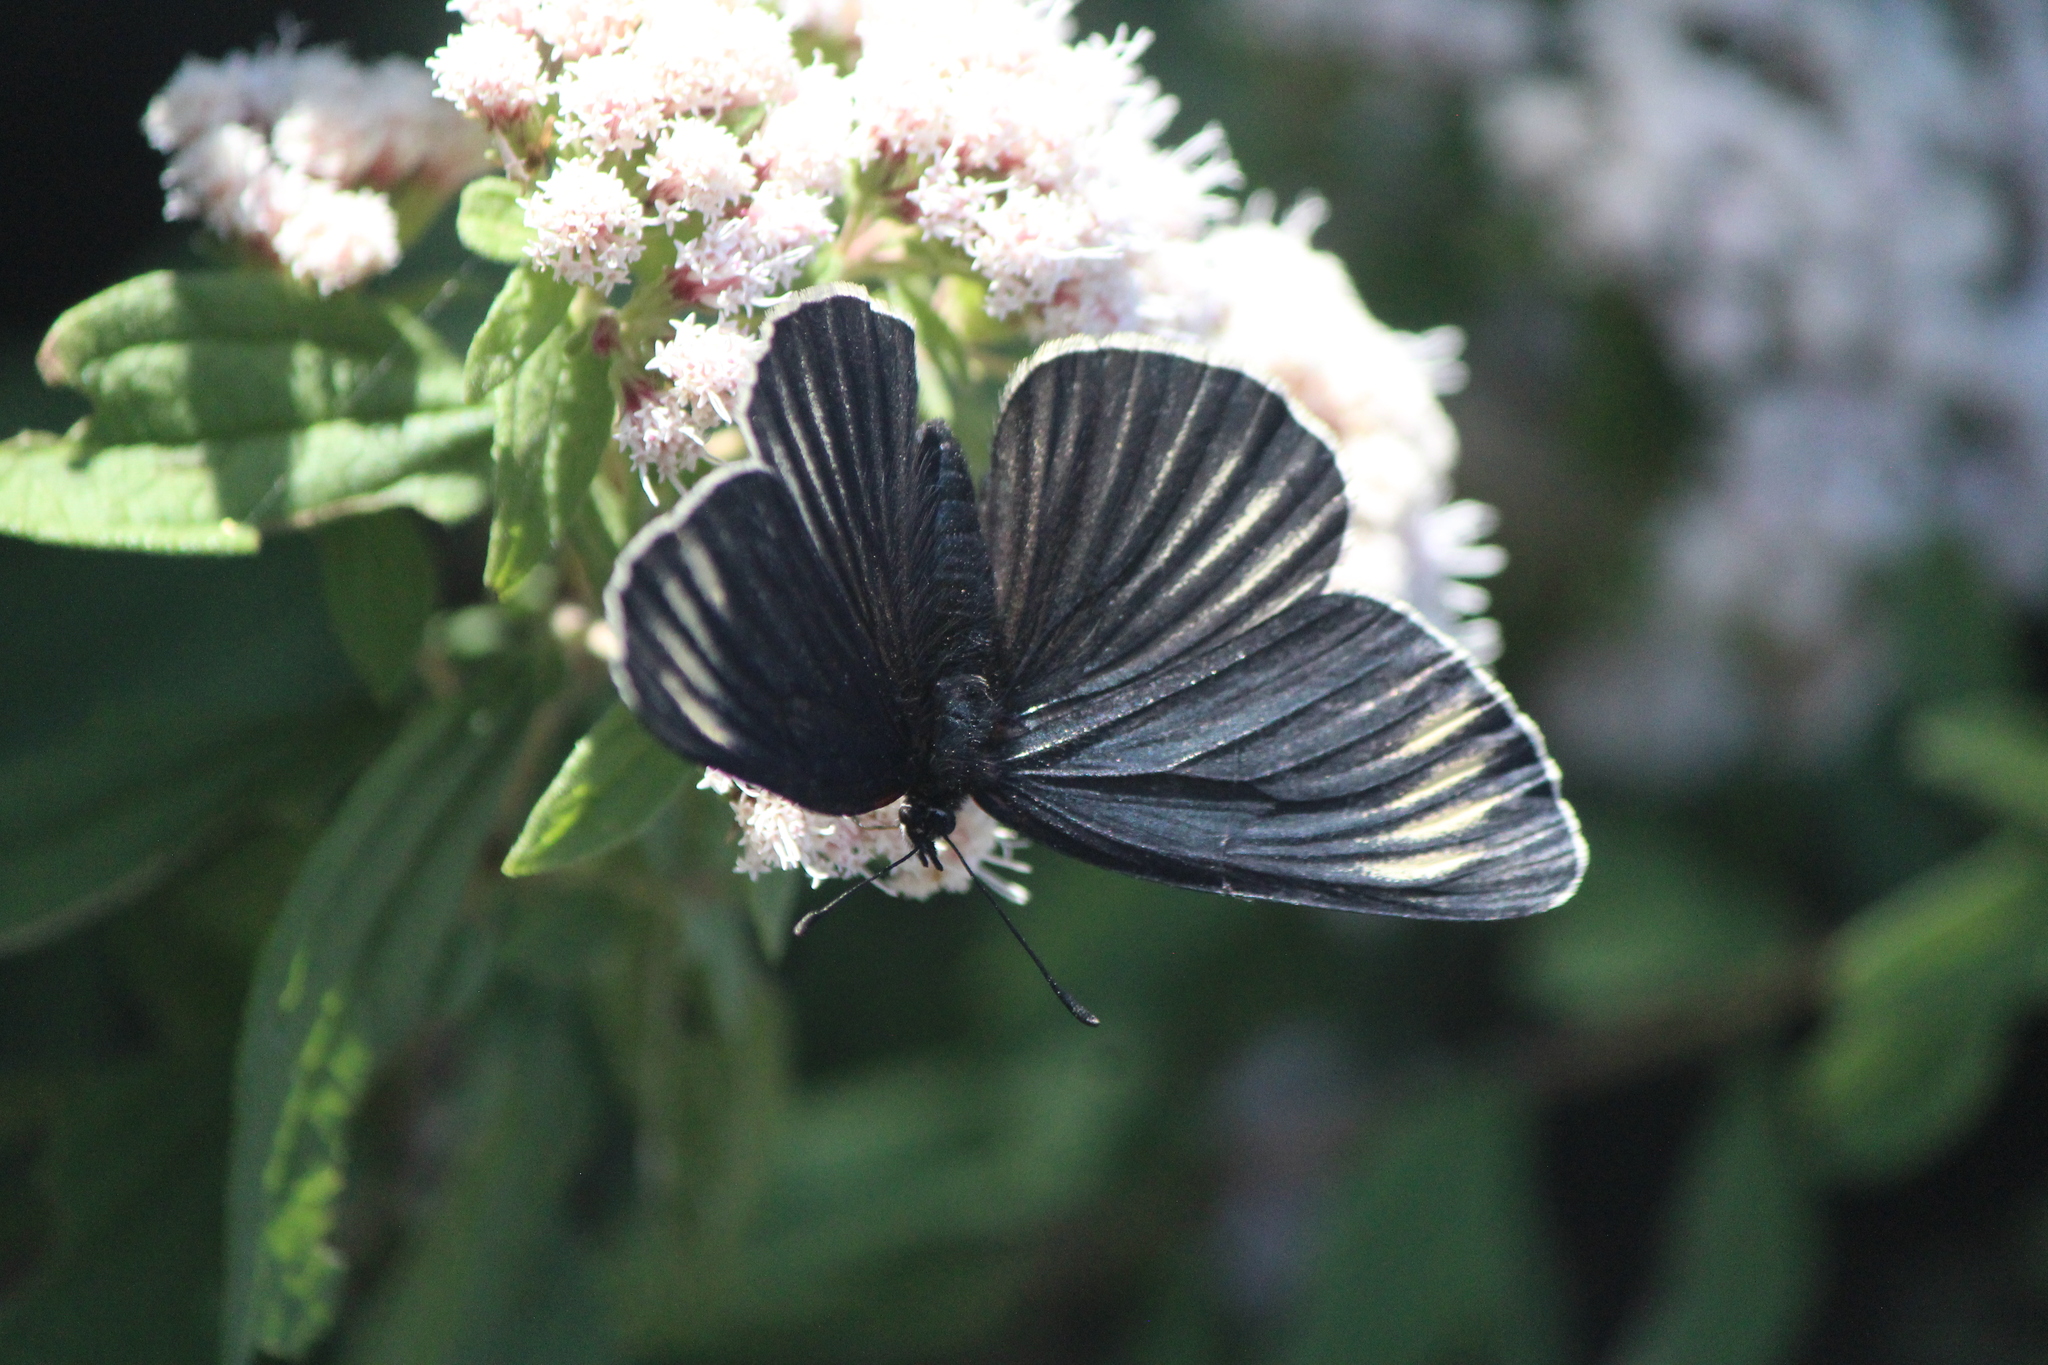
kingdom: Animalia
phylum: Arthropoda
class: Insecta
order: Lepidoptera
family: Nymphalidae
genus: Chlosyne
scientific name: Chlosyne ehrenbergii
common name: White-rayed patch
